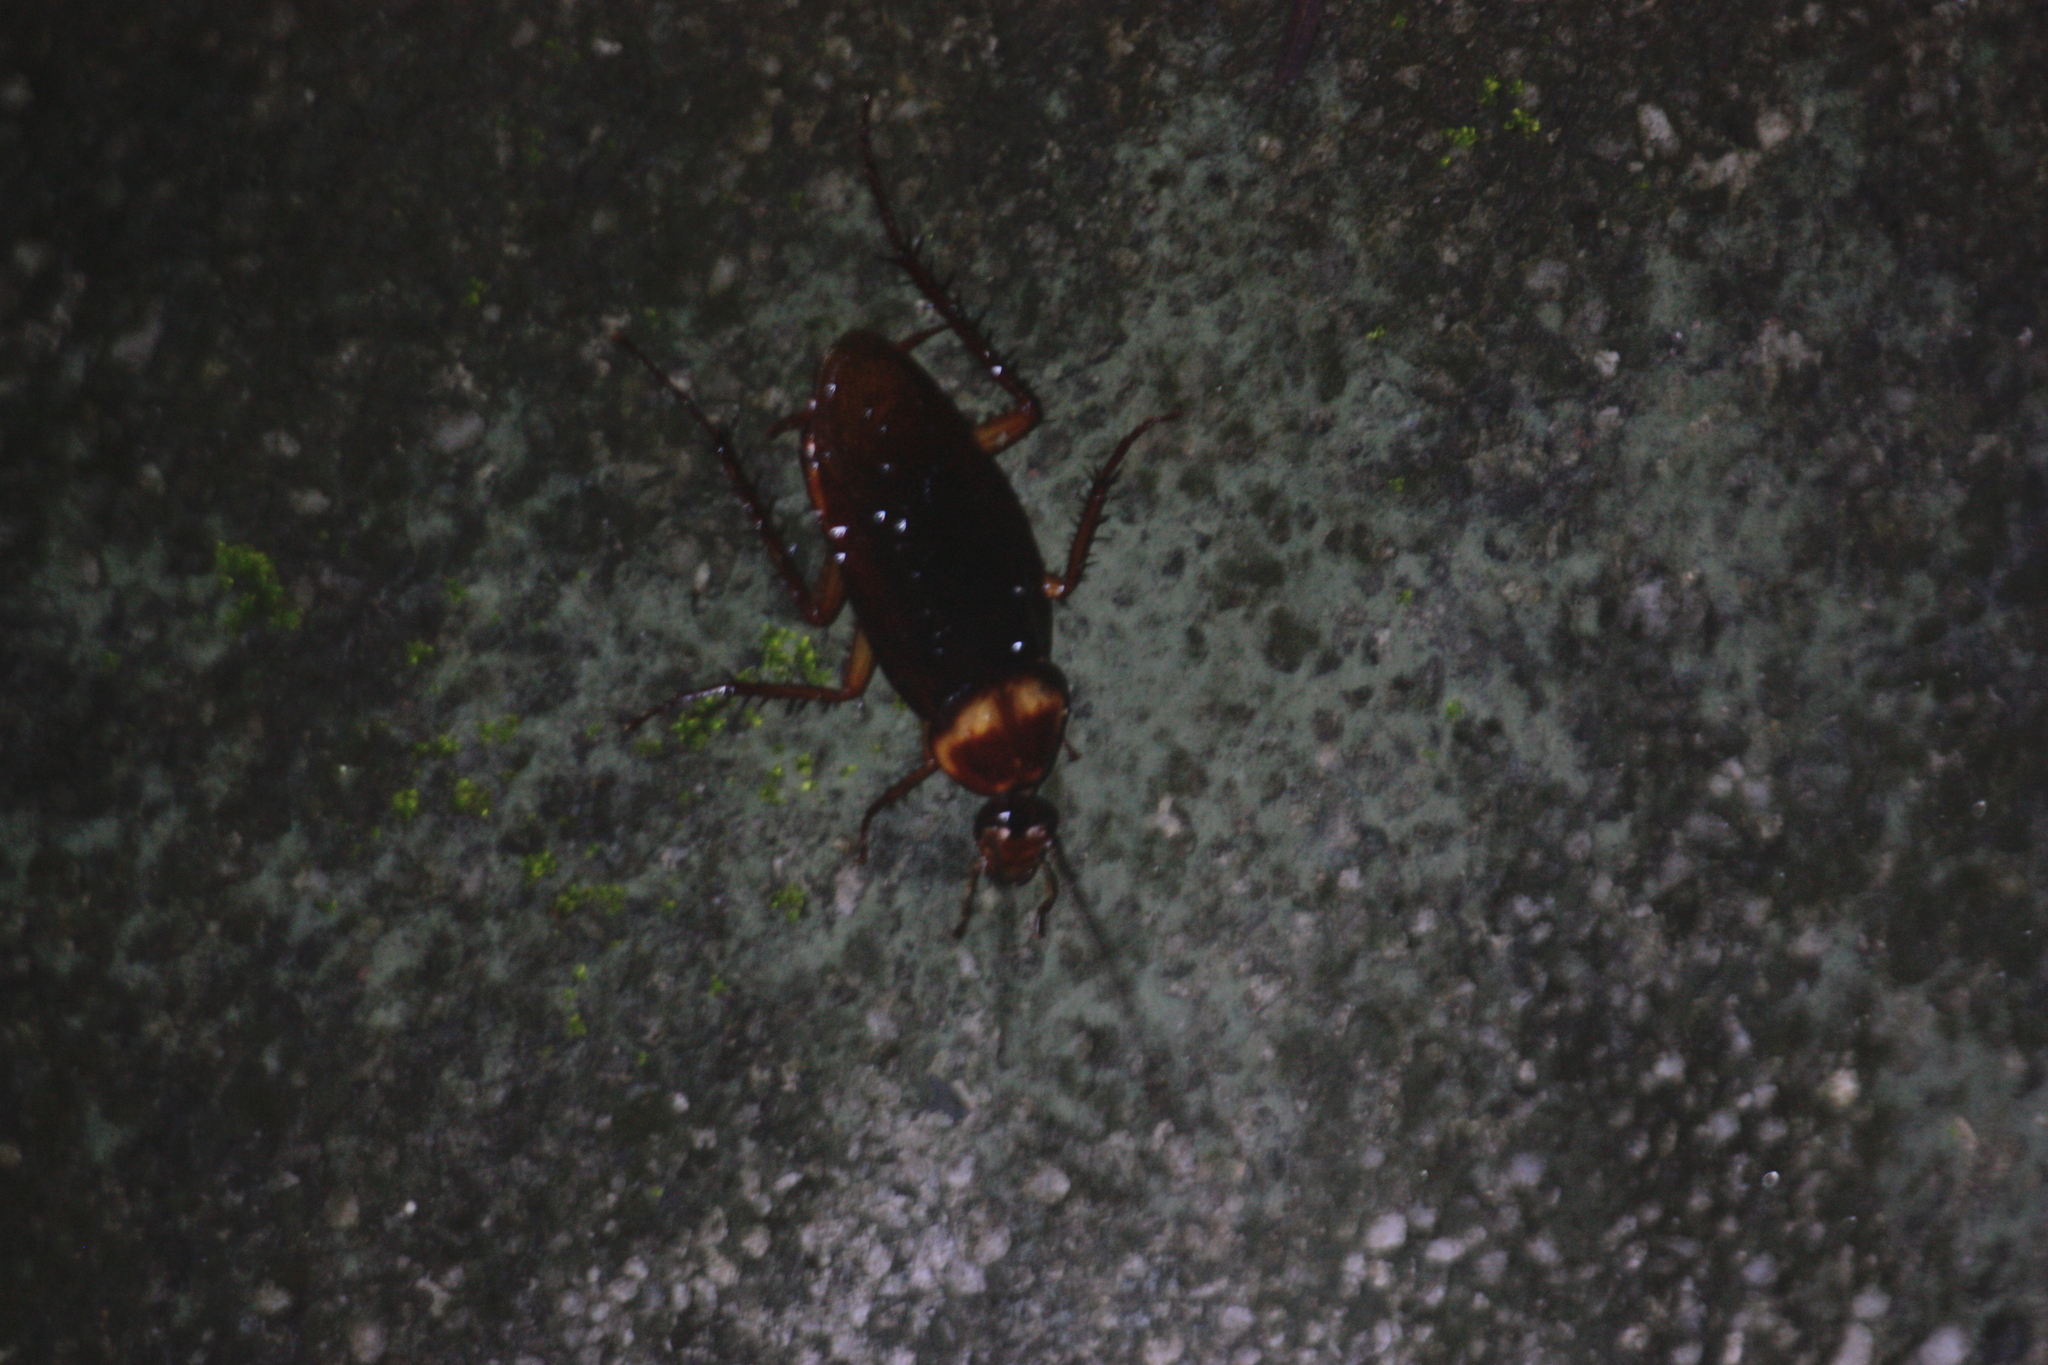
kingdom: Animalia
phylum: Arthropoda
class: Insecta
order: Blattodea
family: Blattidae
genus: Periplaneta
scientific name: Periplaneta americana
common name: American cockroach
